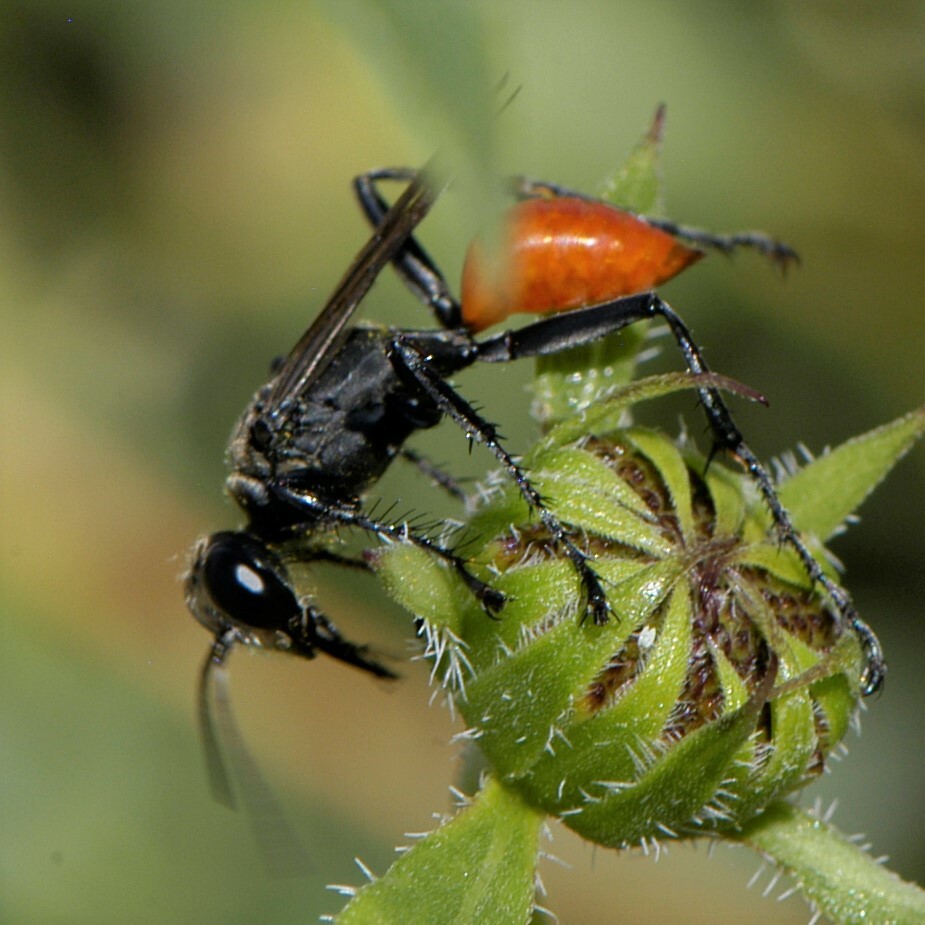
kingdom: Animalia
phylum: Arthropoda
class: Insecta
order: Hymenoptera
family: Sphecidae
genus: Prionyx
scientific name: Prionyx
